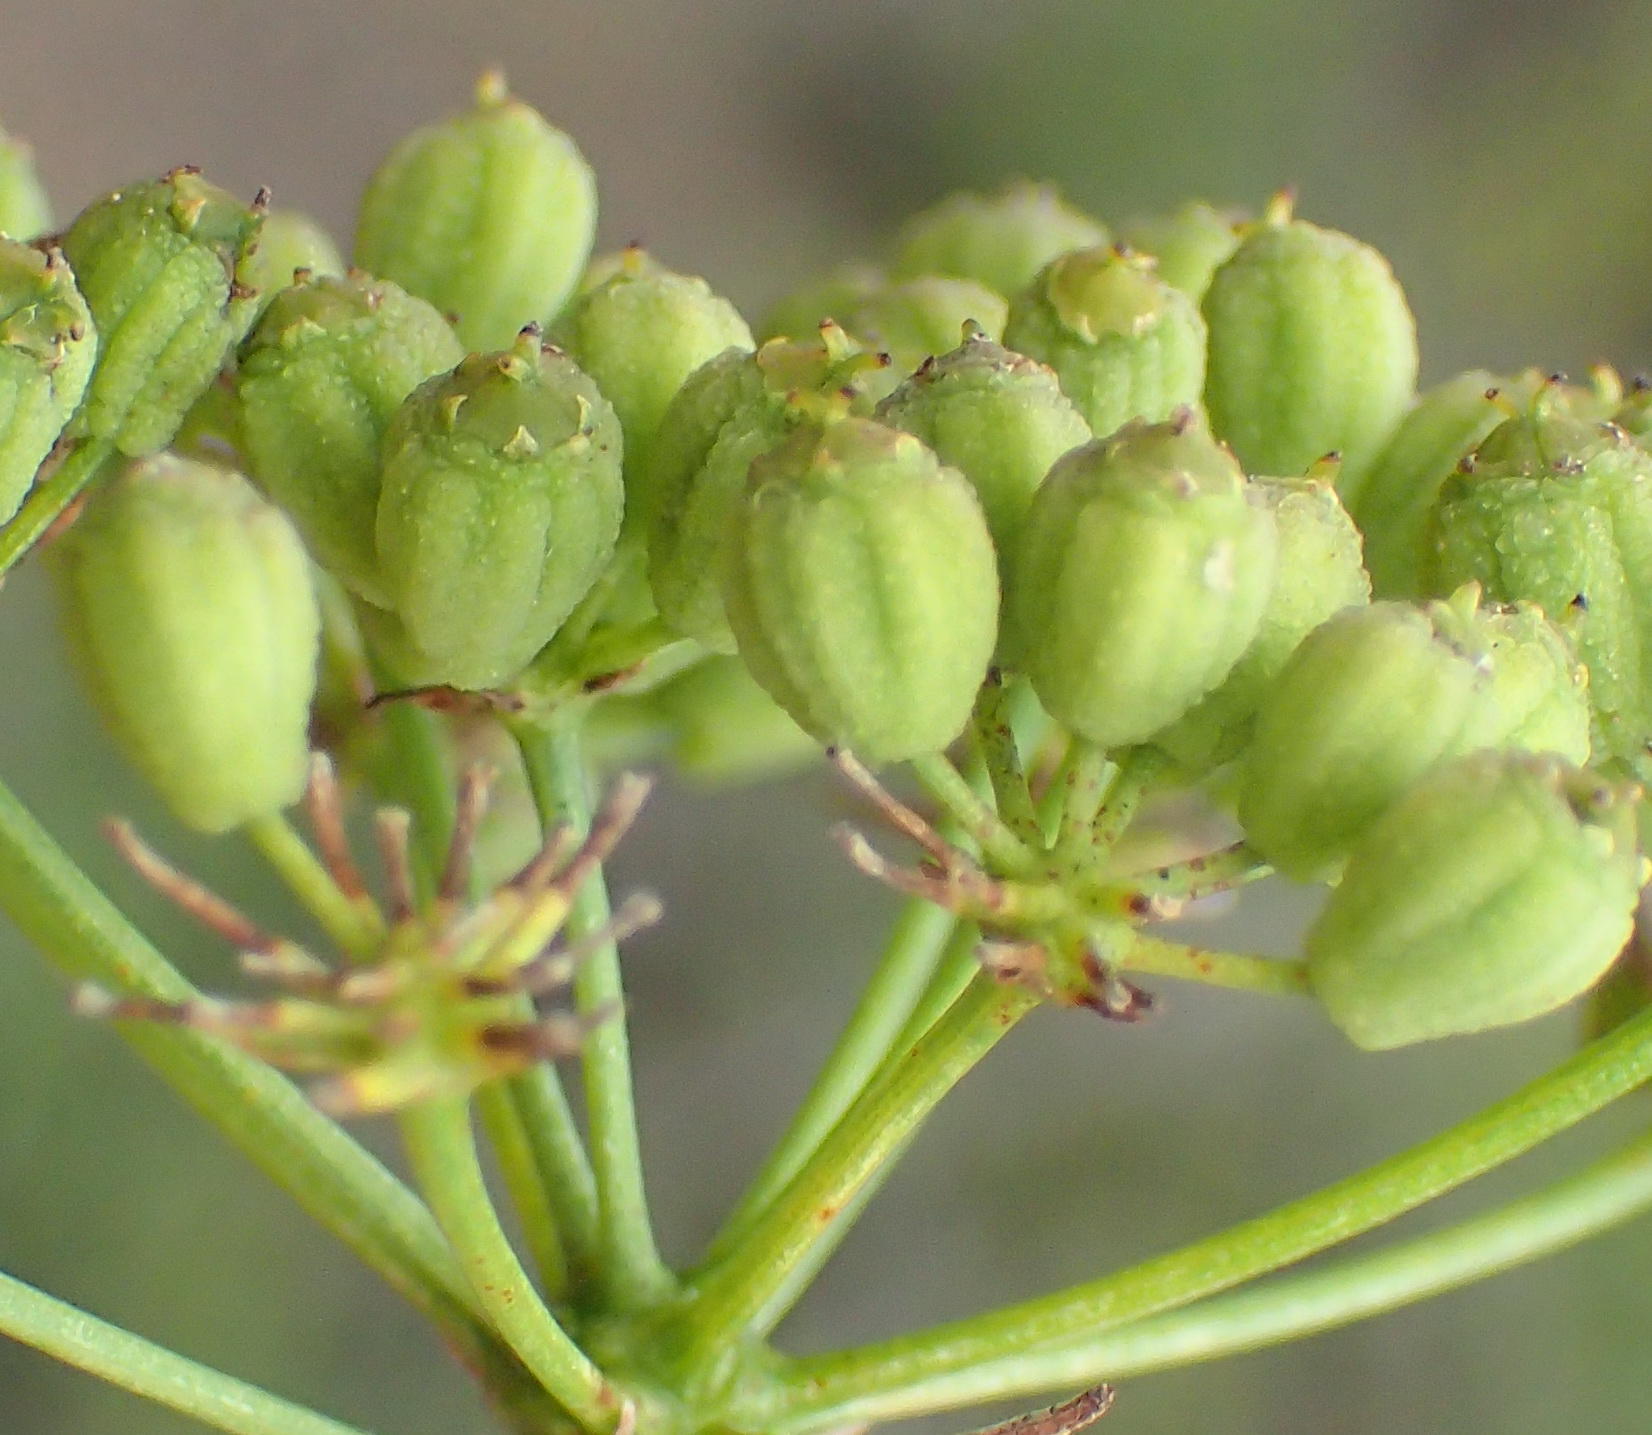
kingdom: Plantae
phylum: Tracheophyta
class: Magnoliopsida
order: Apiales
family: Apiaceae
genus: Anginon
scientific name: Anginon difforme
